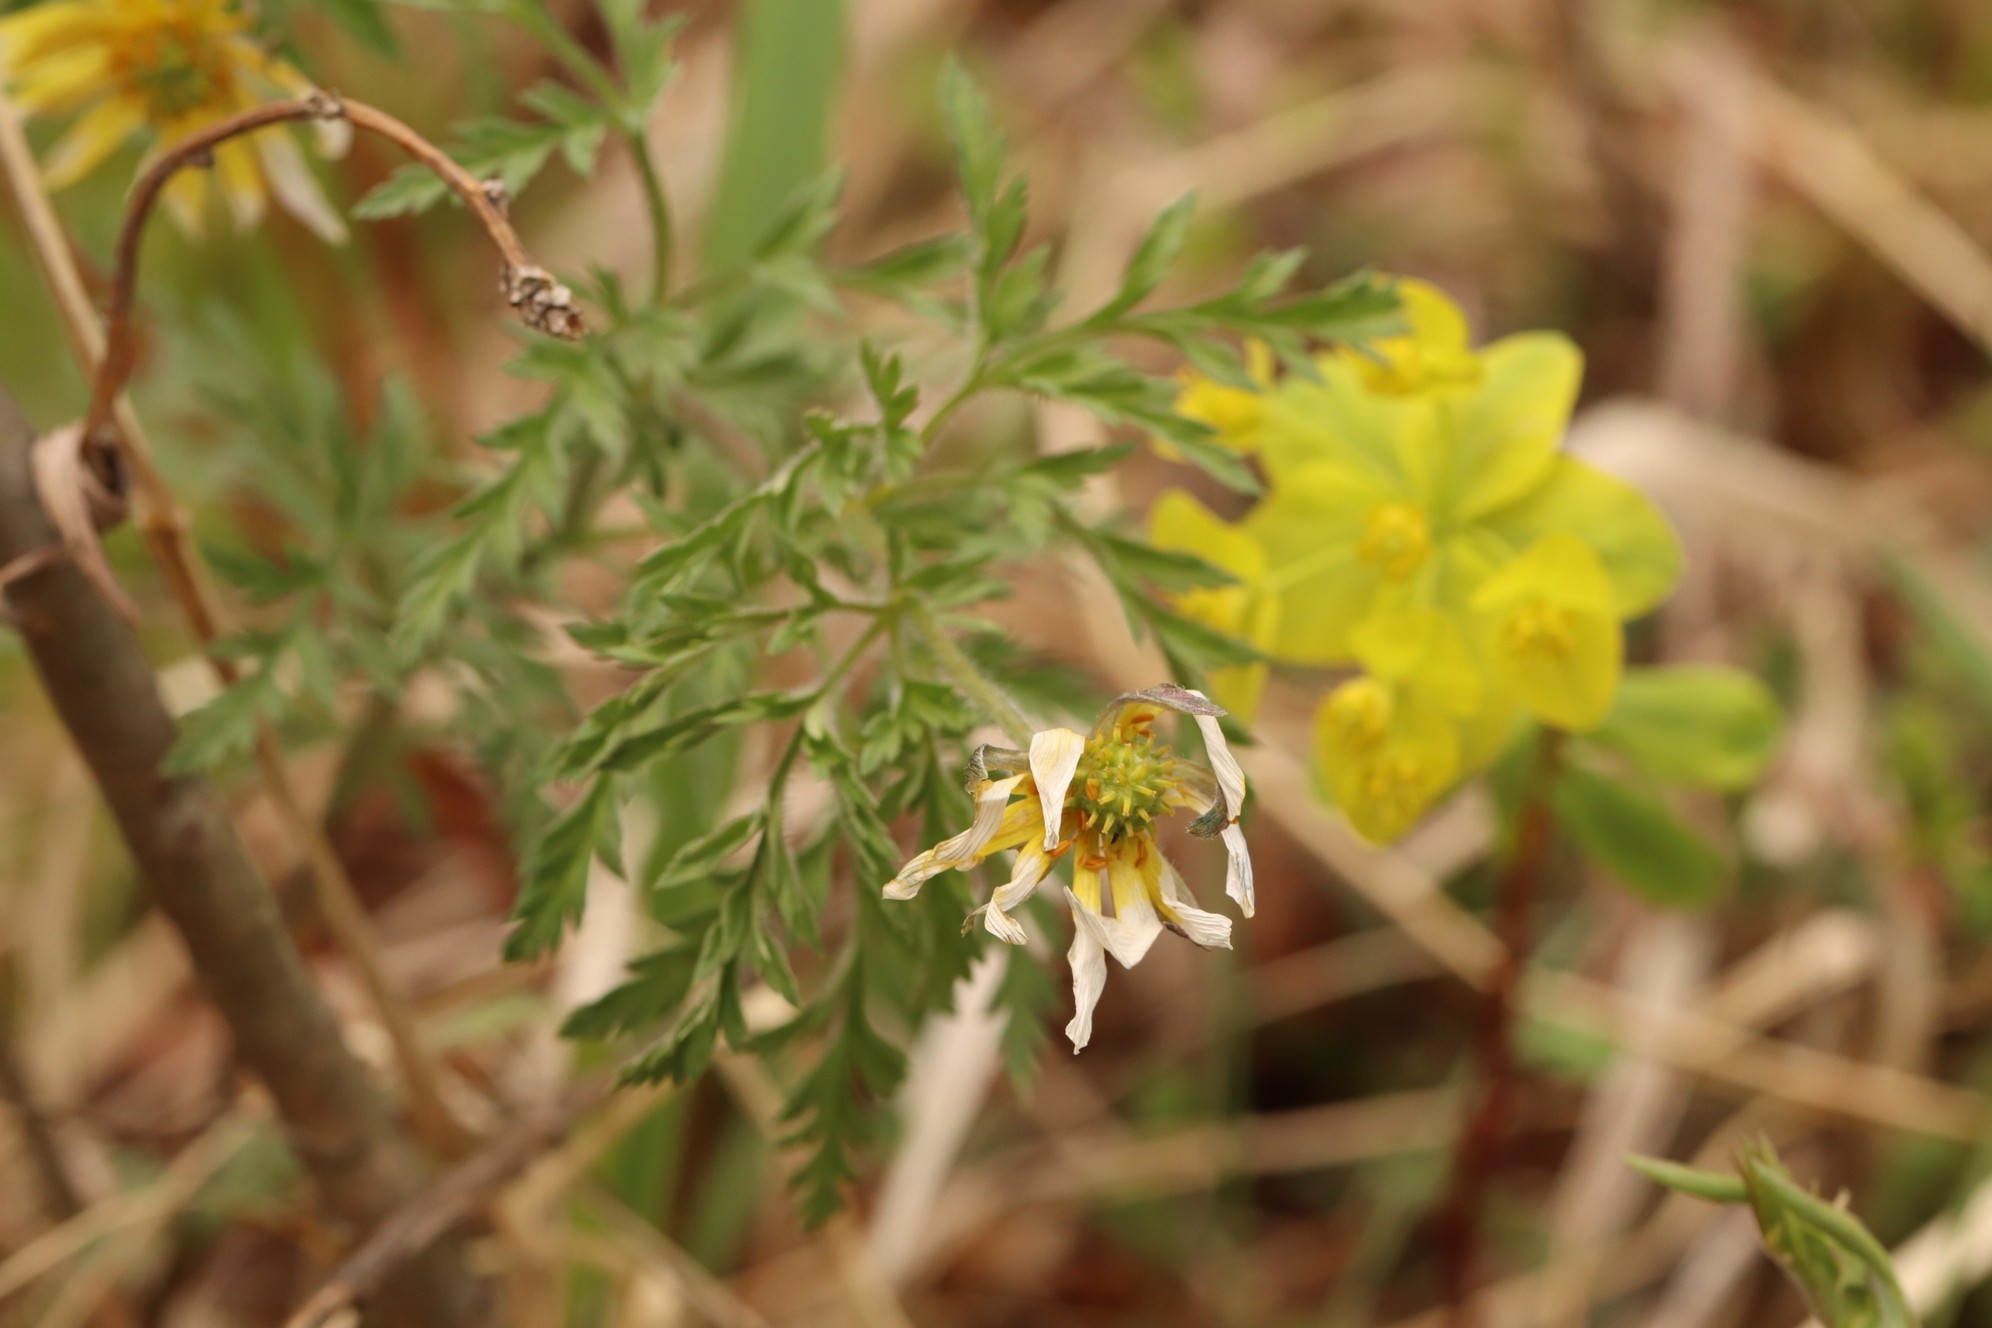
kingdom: Plantae
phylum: Tracheophyta
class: Magnoliopsida
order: Ranunculales
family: Ranunculaceae
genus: Adonis
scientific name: Adonis villosa
